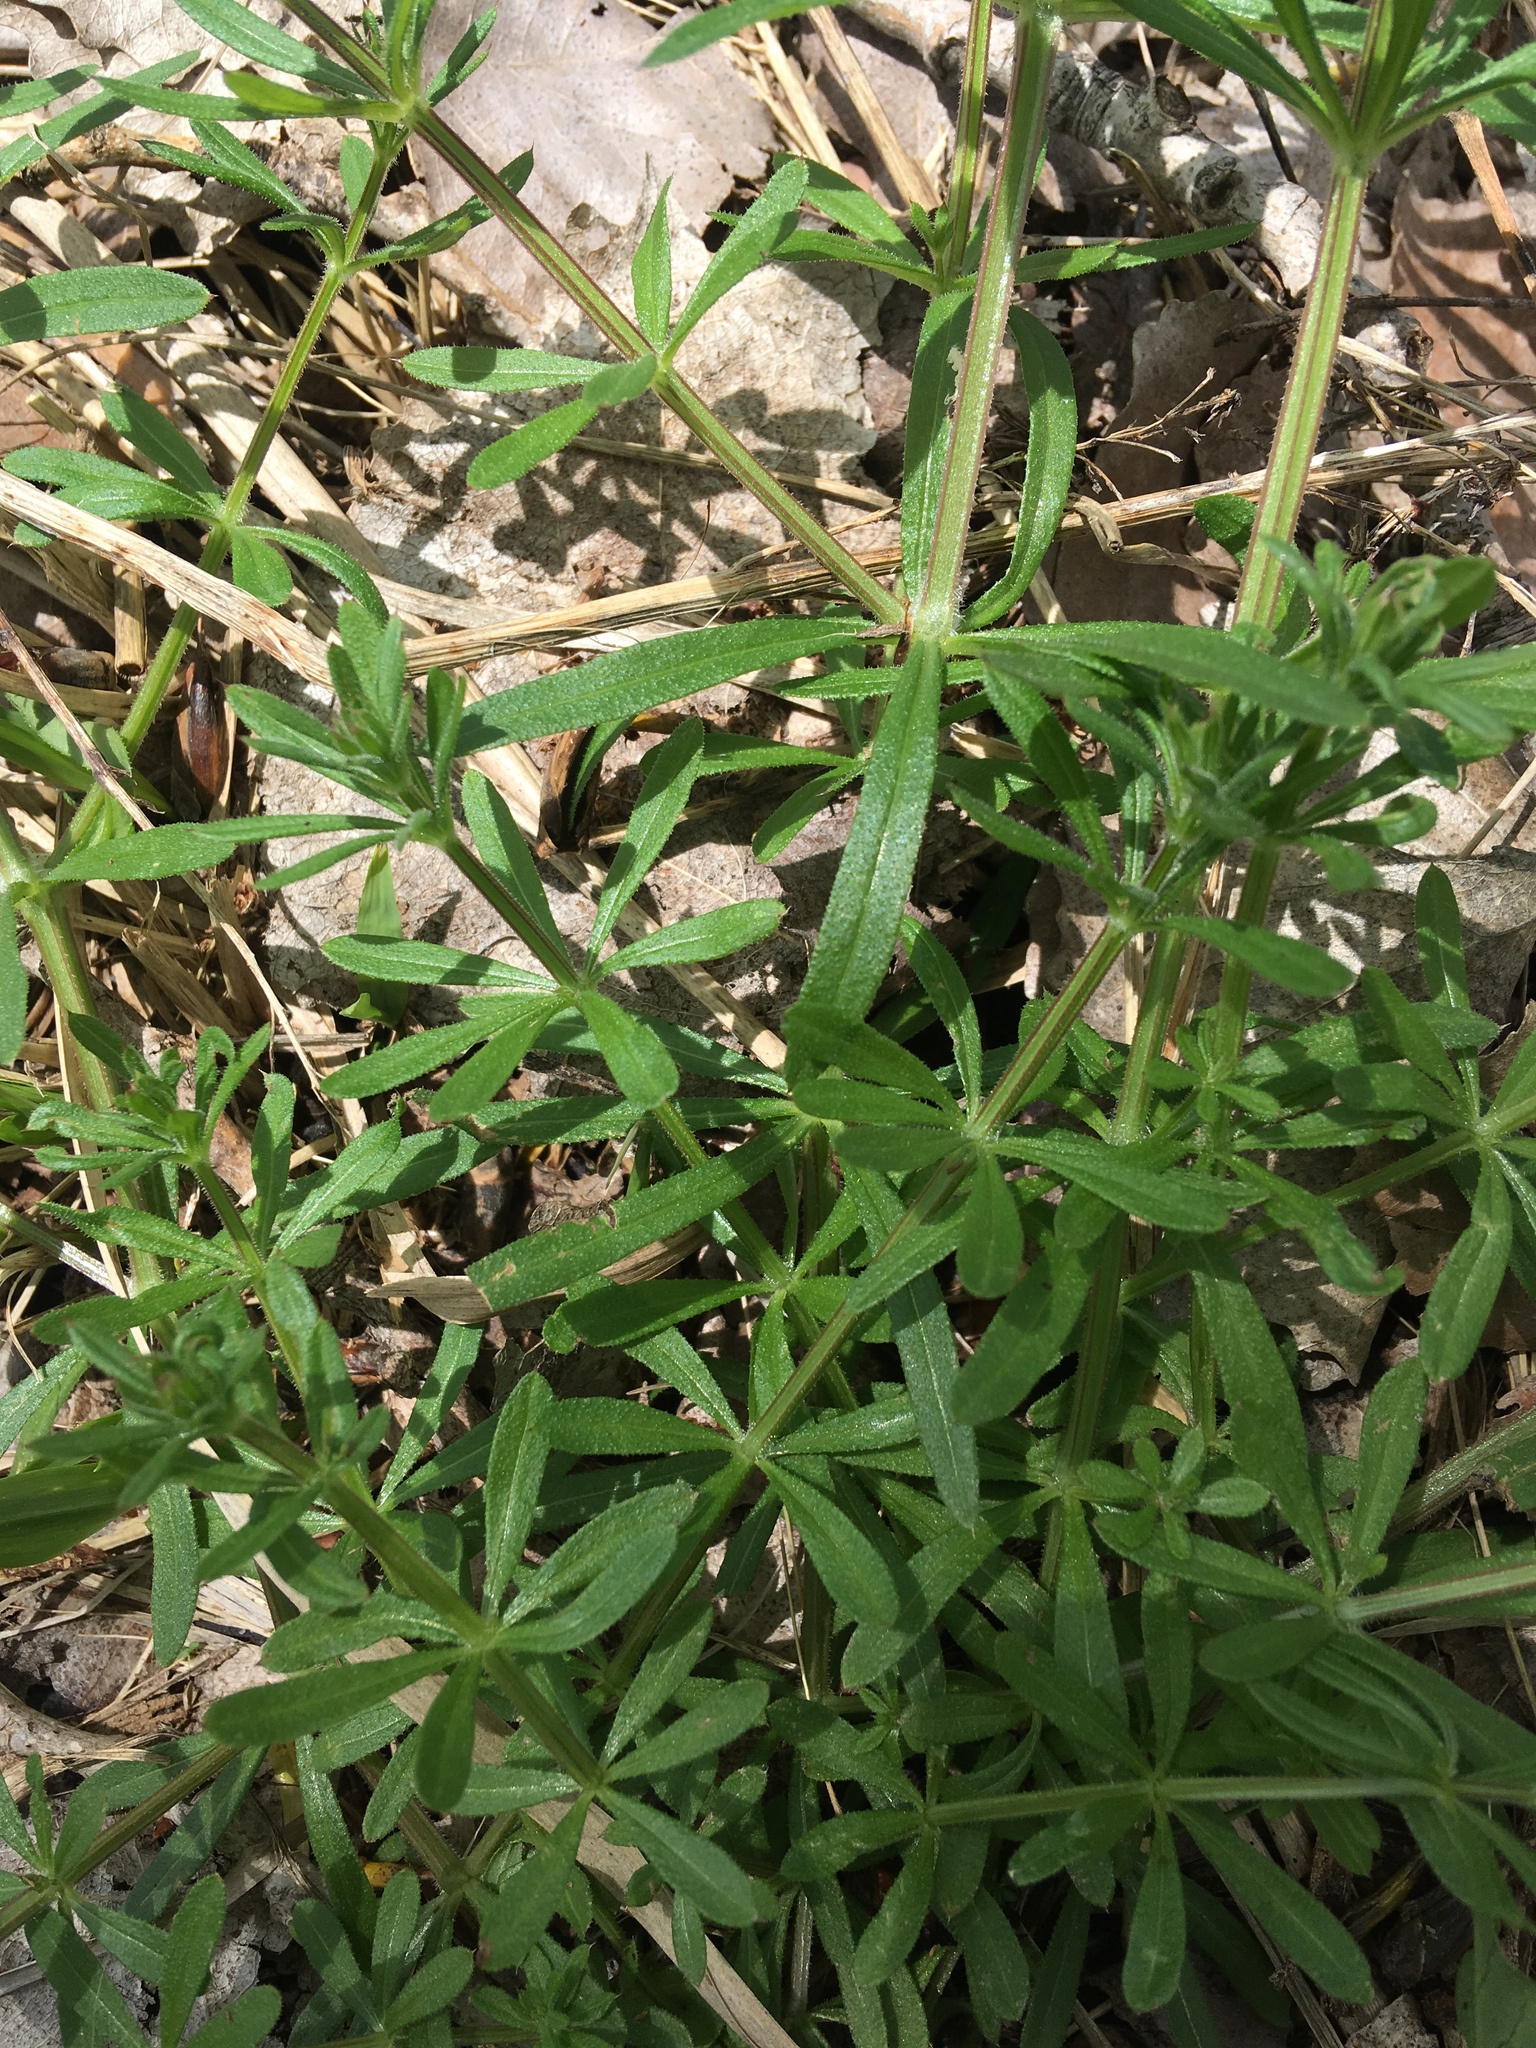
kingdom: Plantae
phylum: Tracheophyta
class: Magnoliopsida
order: Gentianales
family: Rubiaceae
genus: Galium
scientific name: Galium aparine
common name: Cleavers
